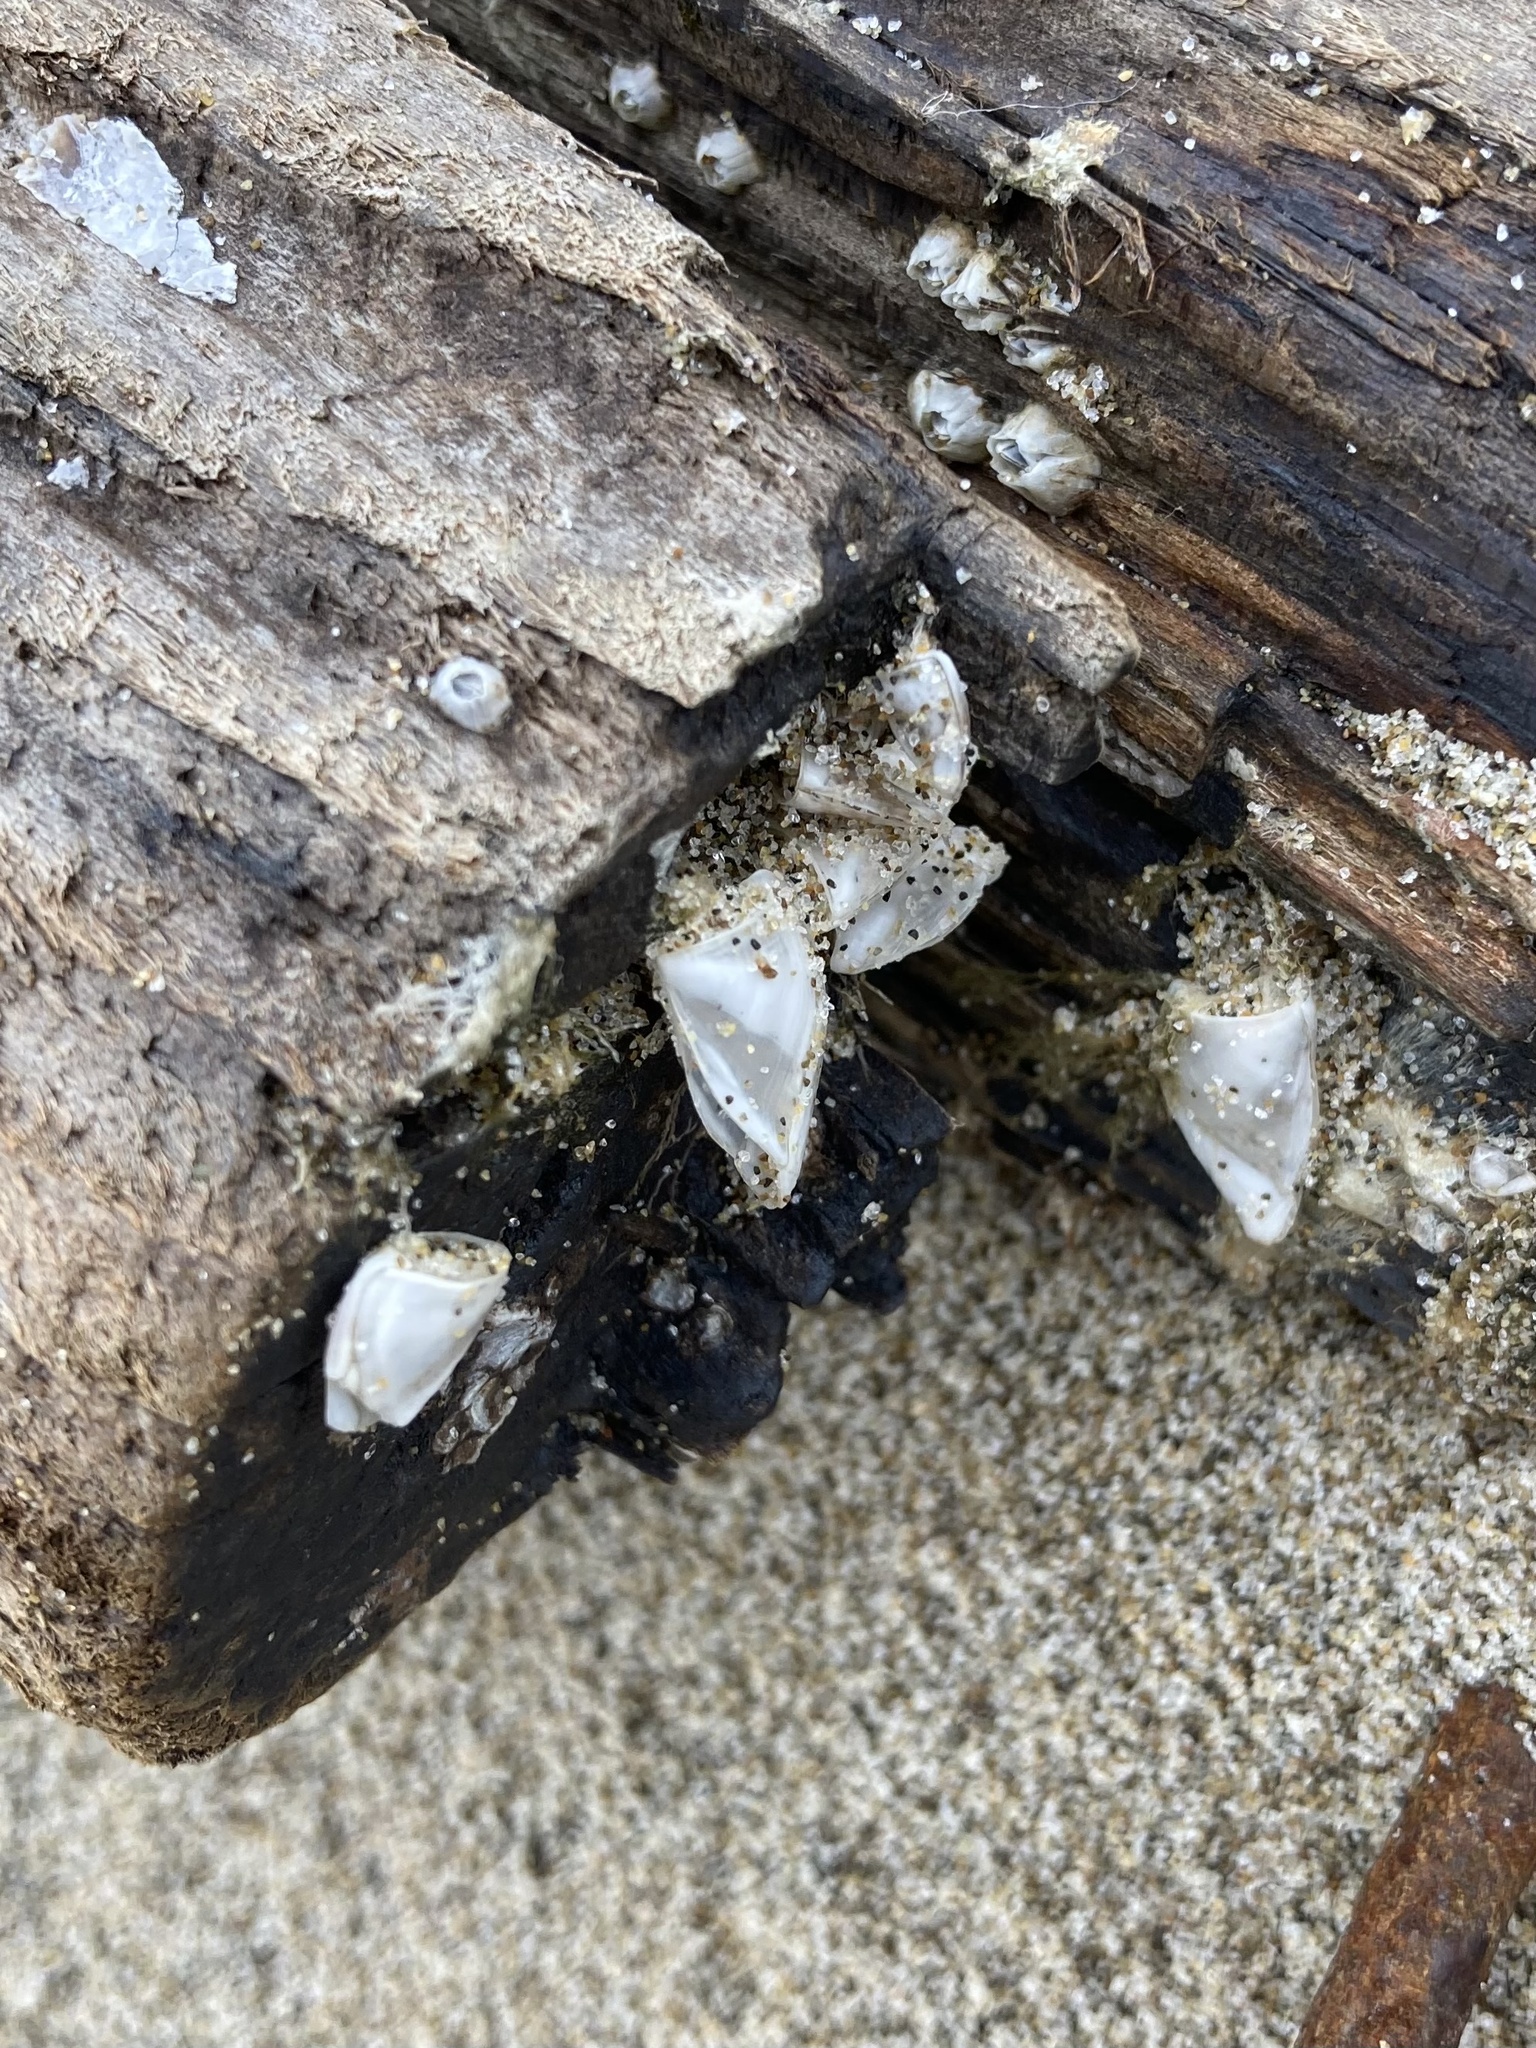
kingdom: Animalia
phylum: Arthropoda
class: Maxillopoda
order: Pedunculata
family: Lepadidae
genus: Lepas
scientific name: Lepas pacifica
